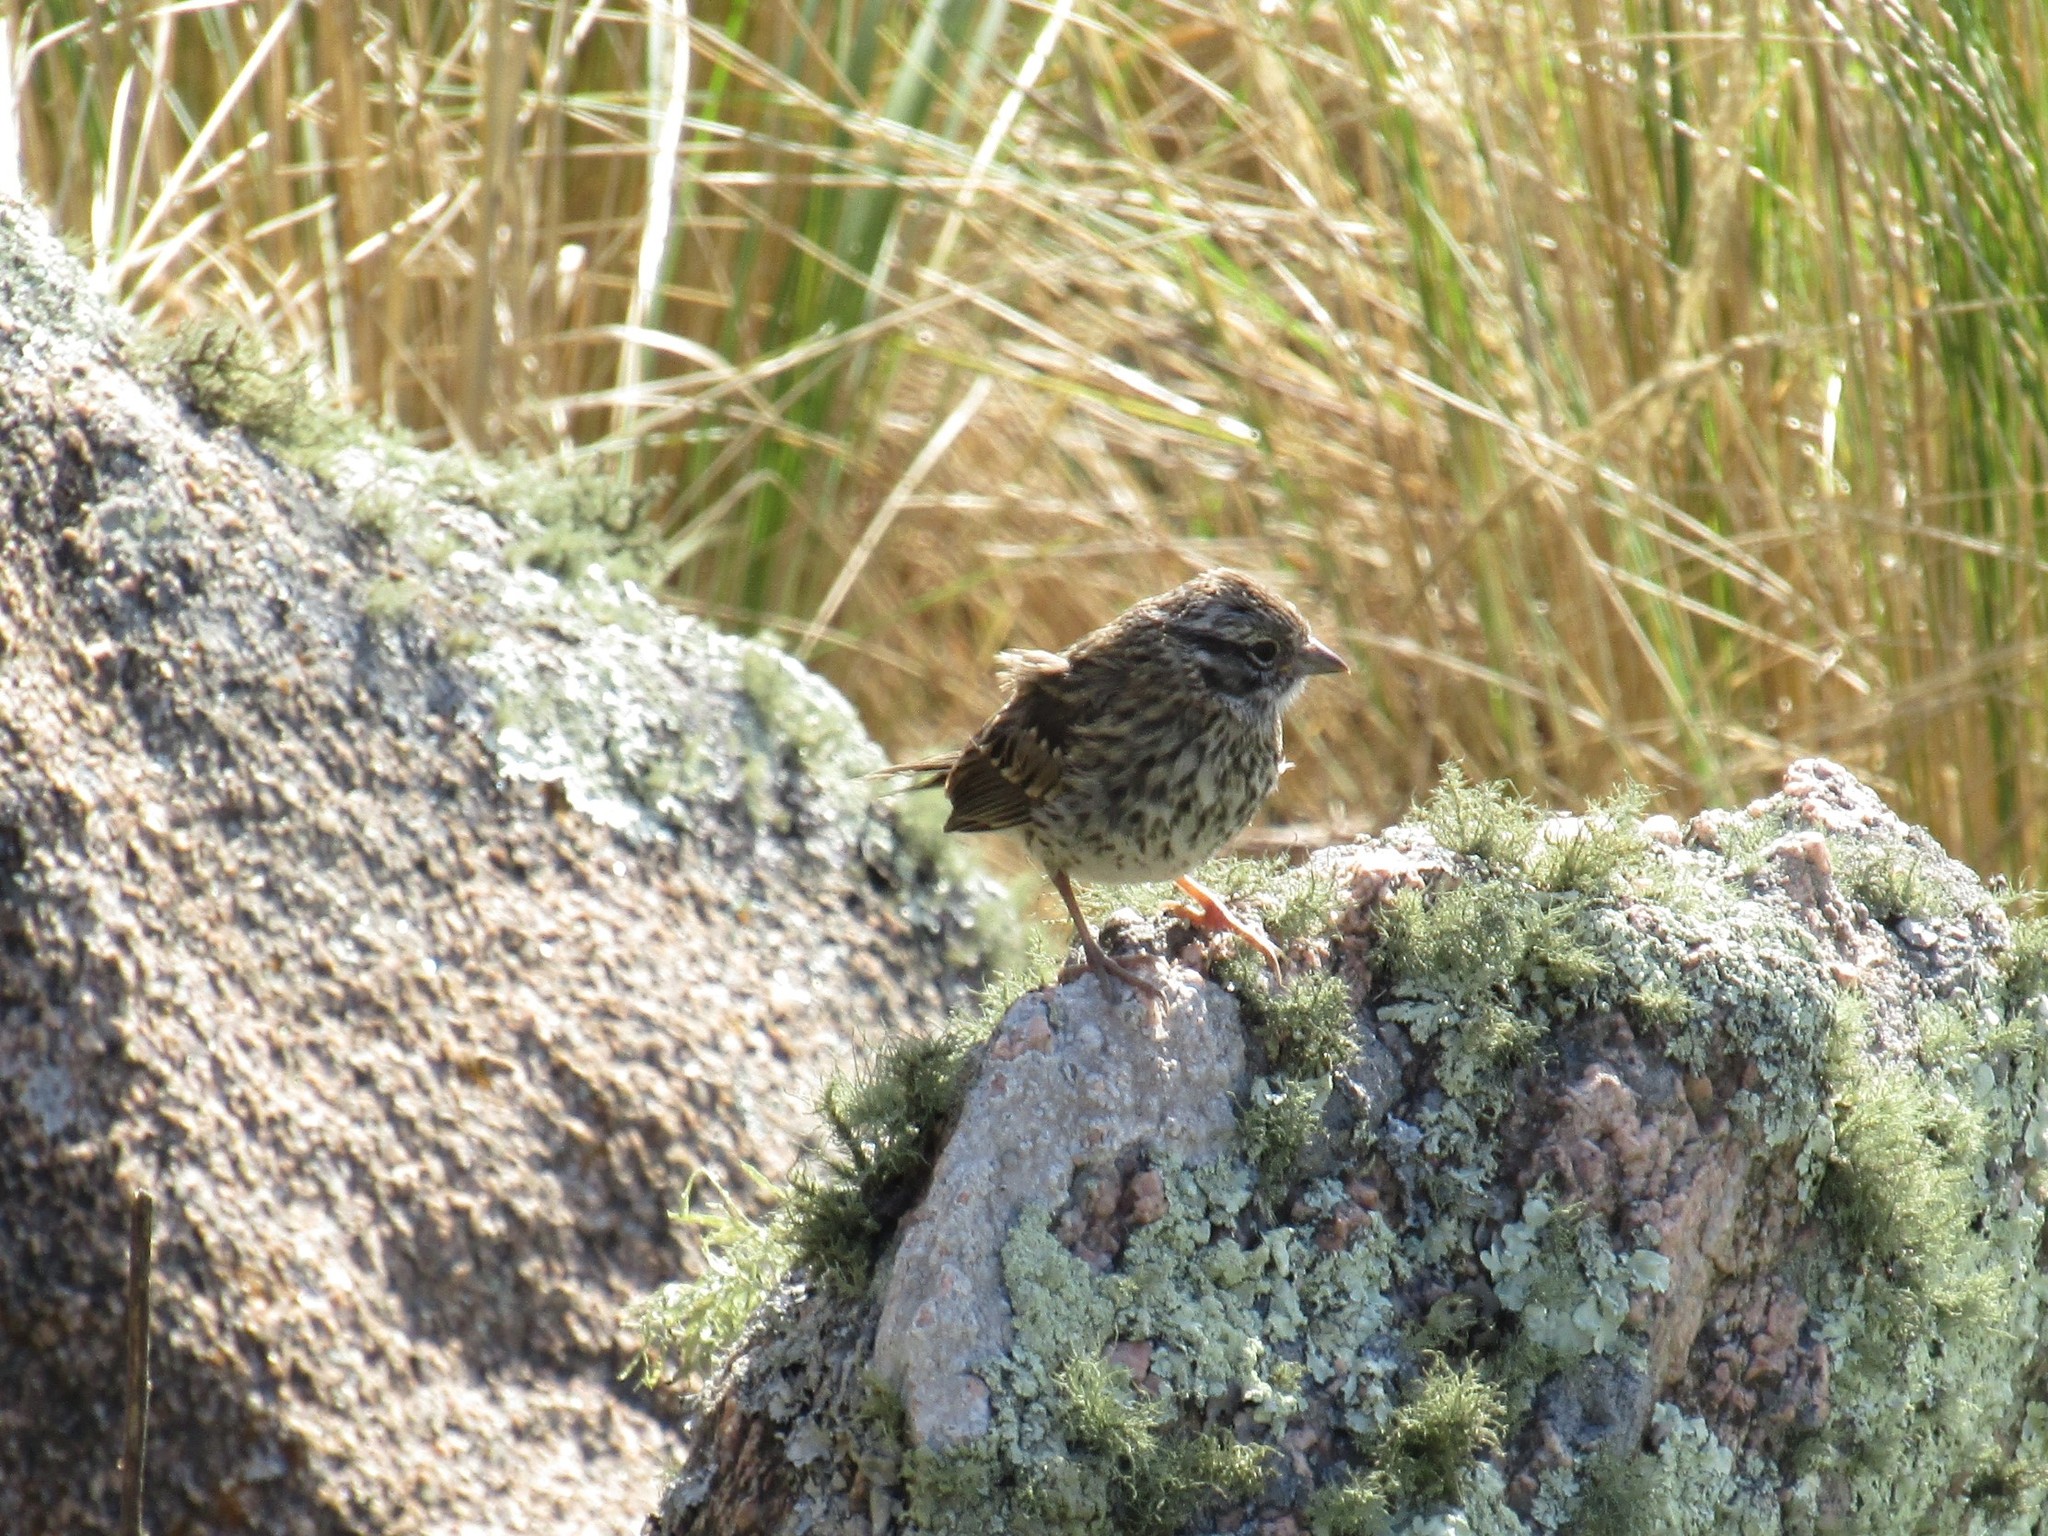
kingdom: Animalia
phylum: Chordata
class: Aves
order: Passeriformes
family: Passerellidae
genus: Zonotrichia
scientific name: Zonotrichia capensis
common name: Rufous-collared sparrow
